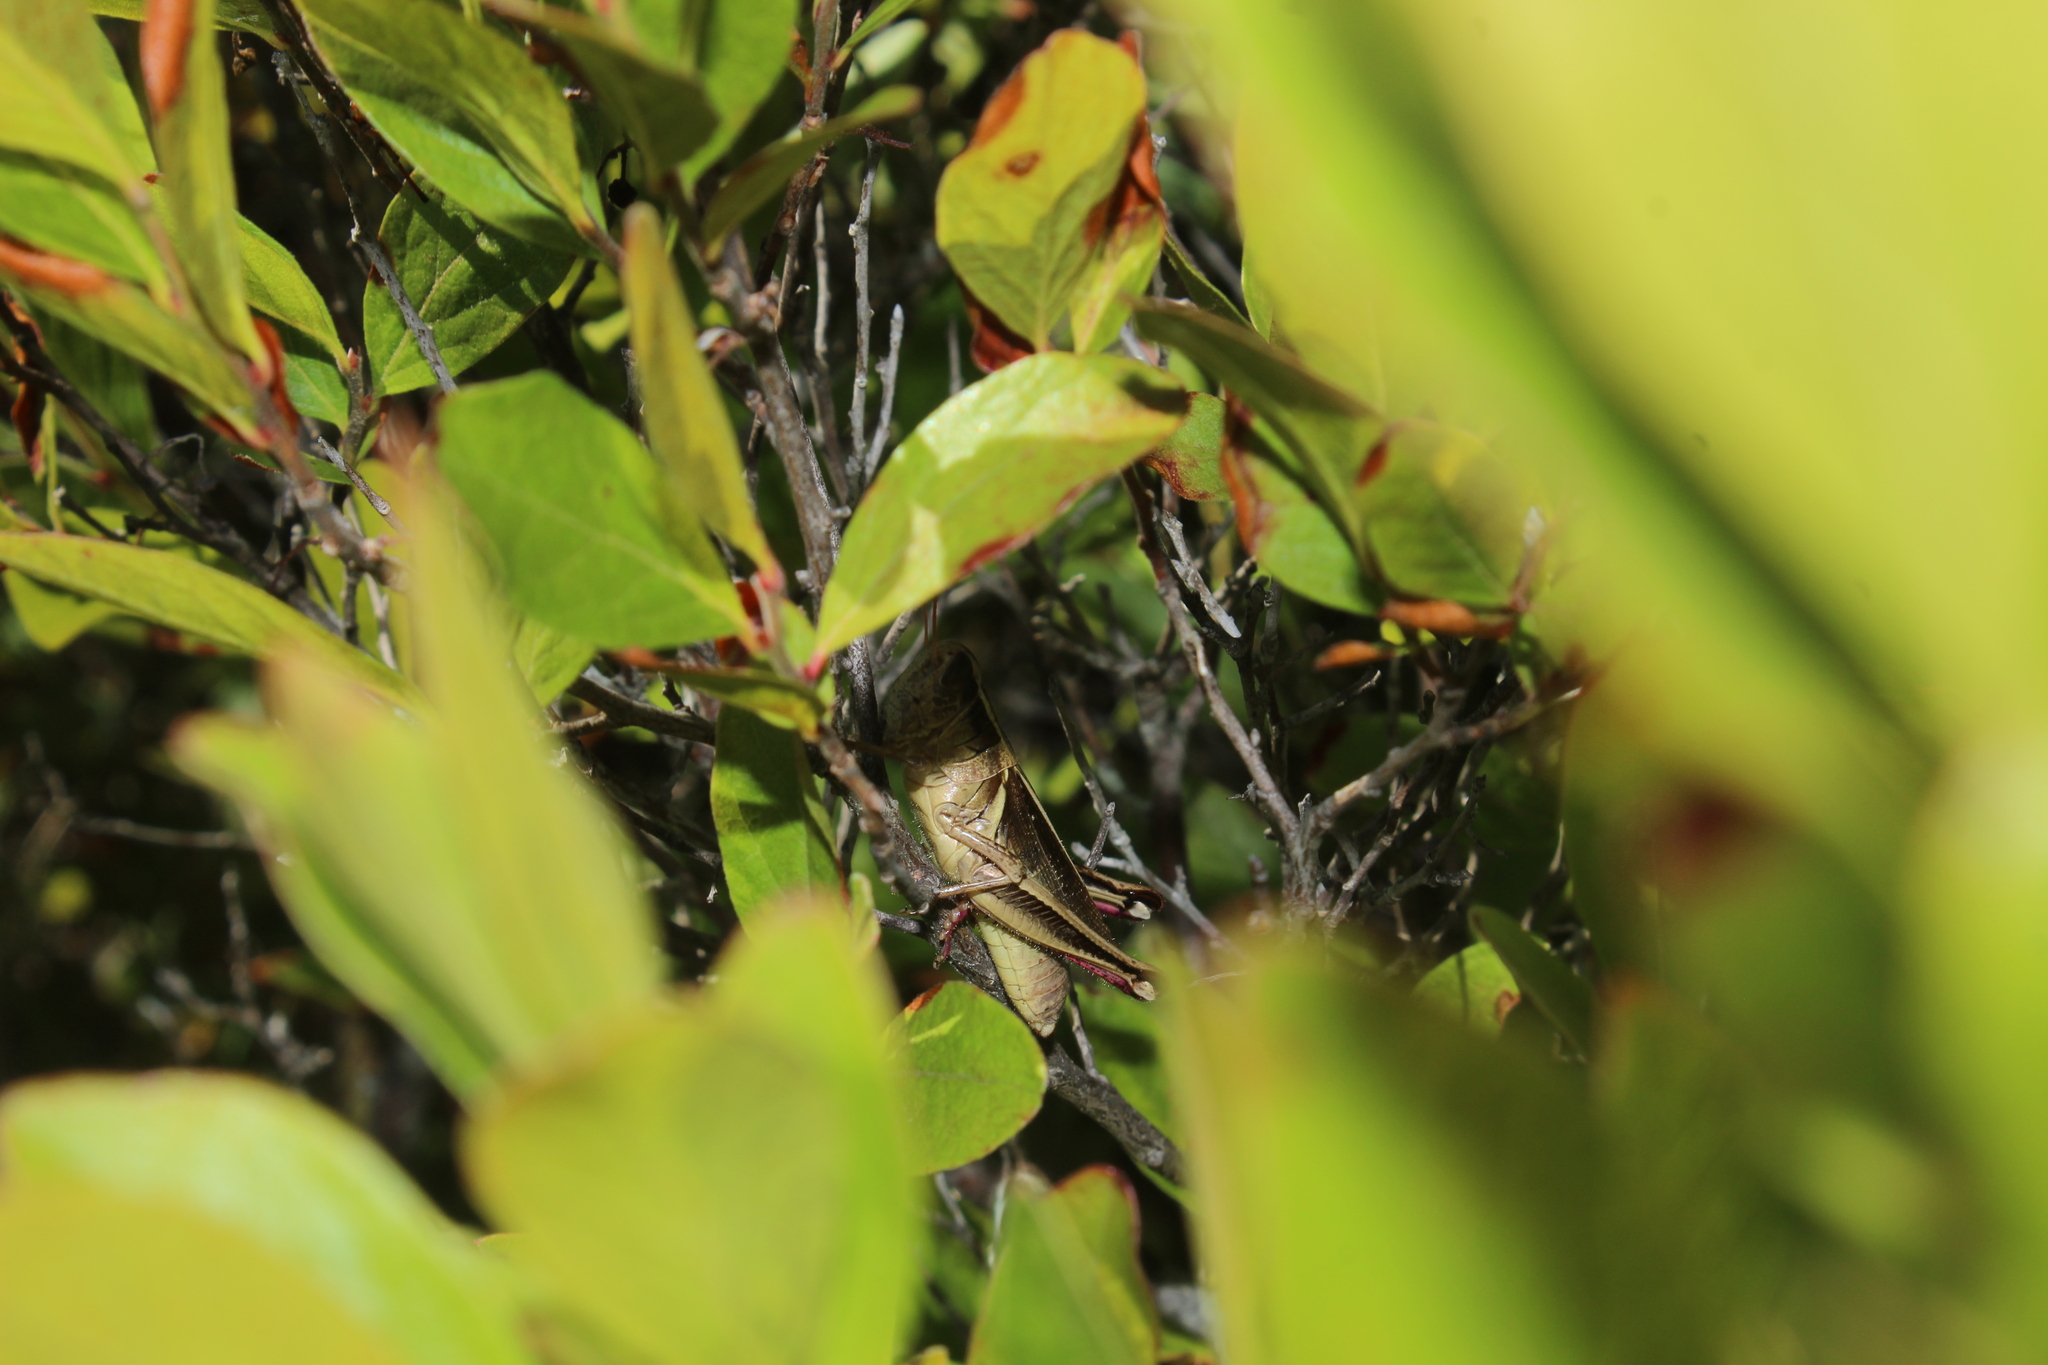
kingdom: Animalia
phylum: Arthropoda
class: Insecta
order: Orthoptera
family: Acrididae
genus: Melanoplus
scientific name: Melanoplus bivittatus
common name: Two-striped grasshopper
